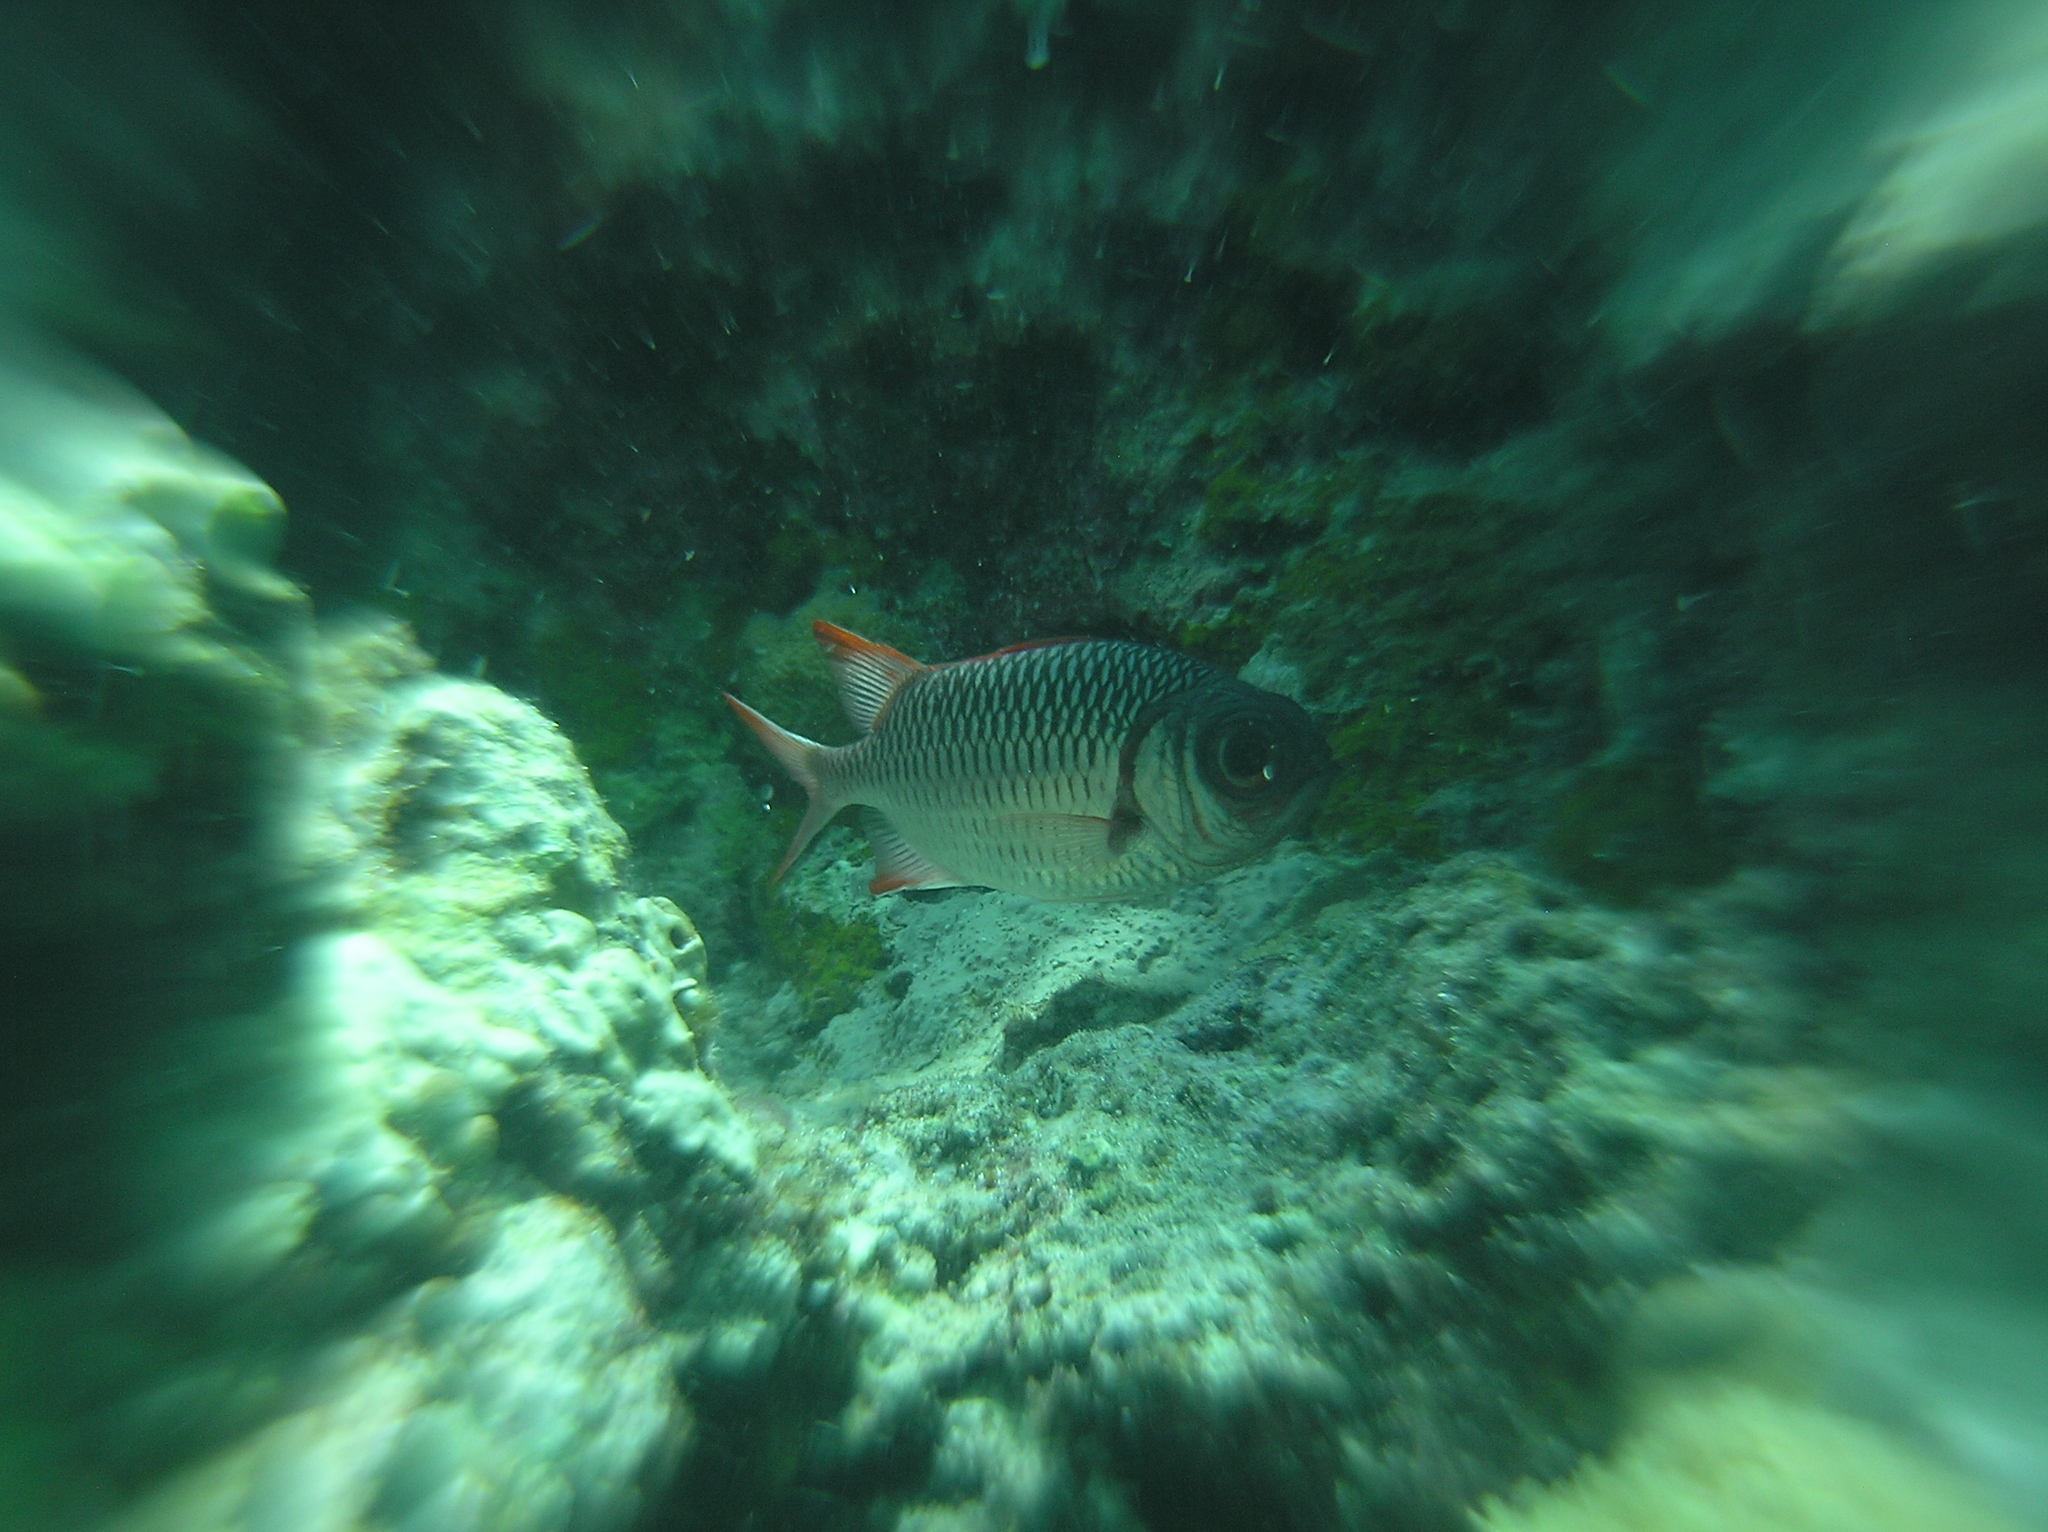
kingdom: Animalia
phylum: Chordata
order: Beryciformes
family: Holocentridae
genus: Myripristis
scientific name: Myripristis violacea
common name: Lattice soldierfish
